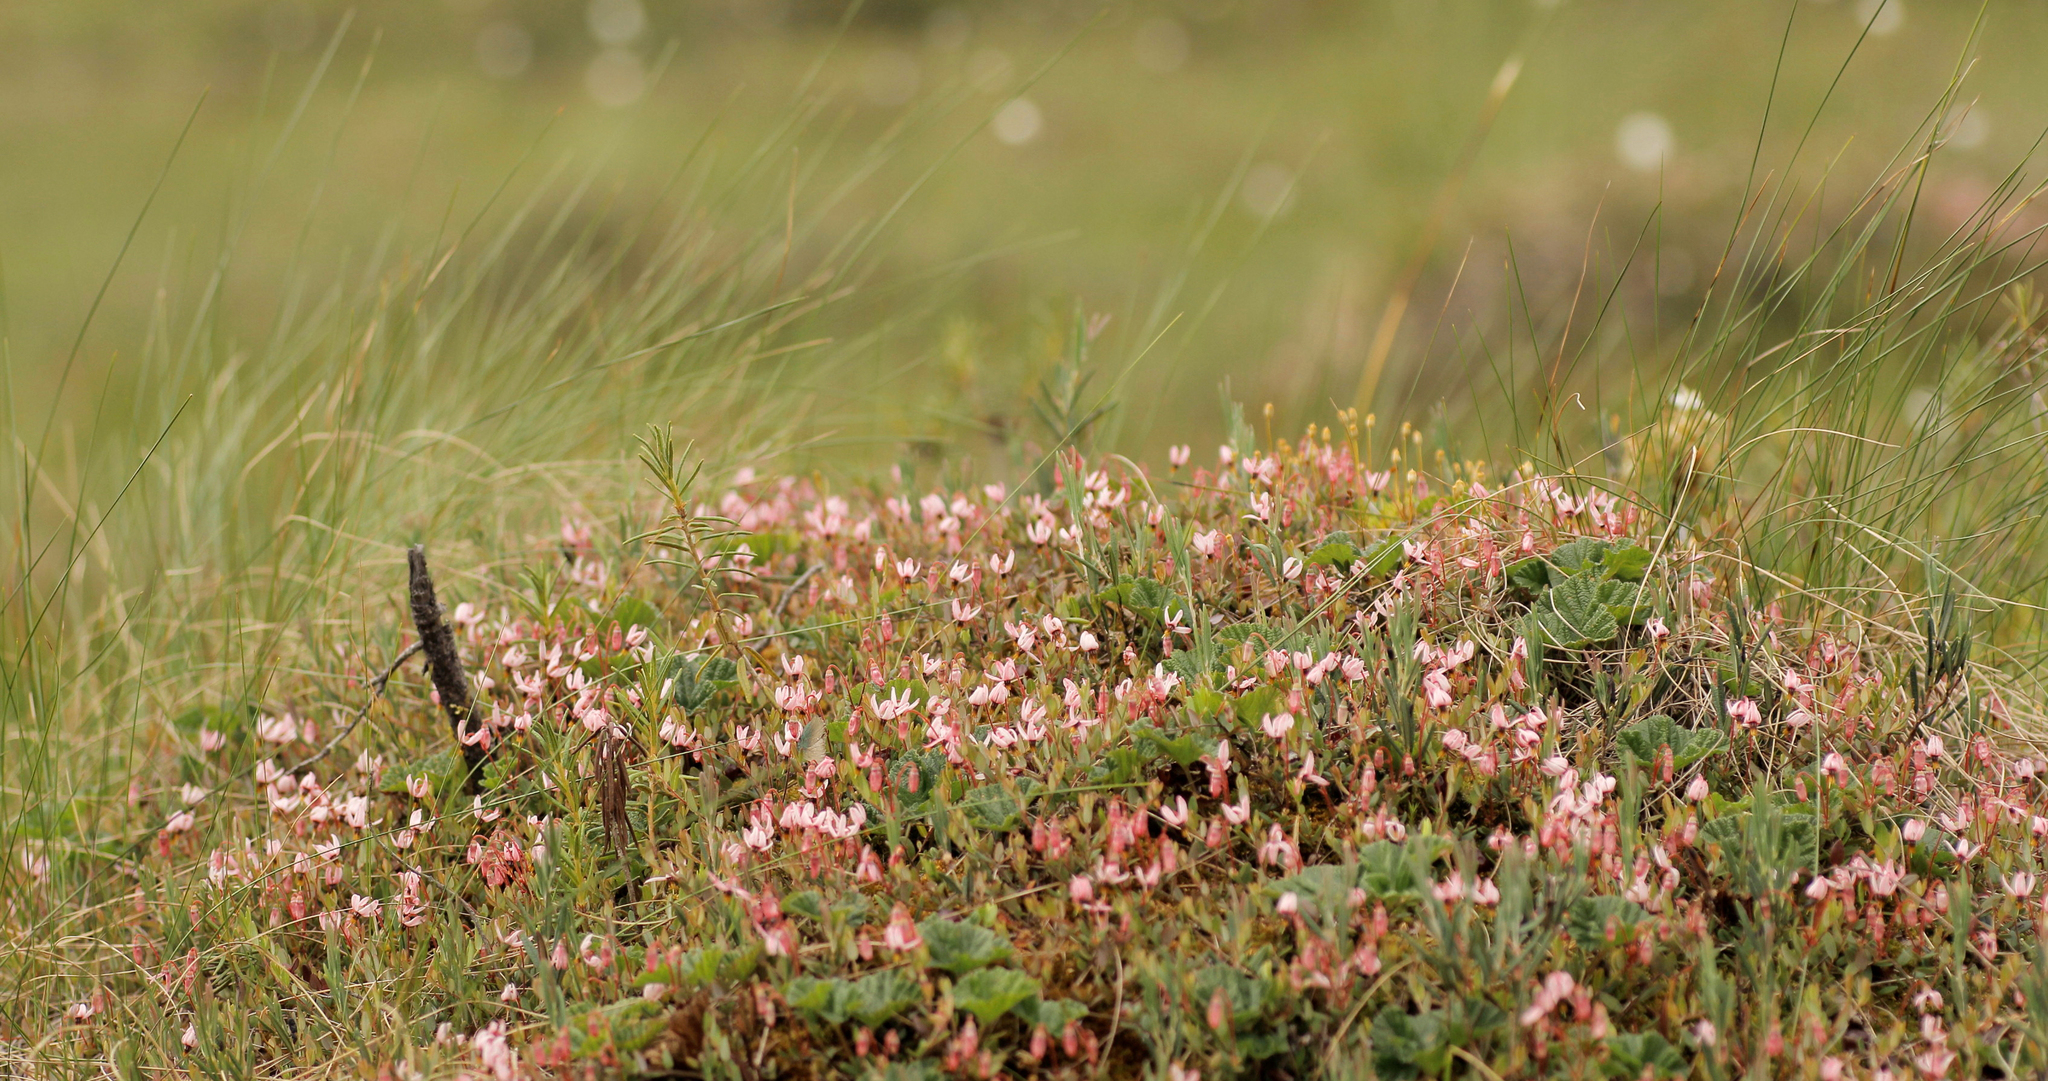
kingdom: Plantae
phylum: Tracheophyta
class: Magnoliopsida
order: Ericales
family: Ericaceae
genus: Vaccinium
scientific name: Vaccinium oxycoccos
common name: Cranberry
